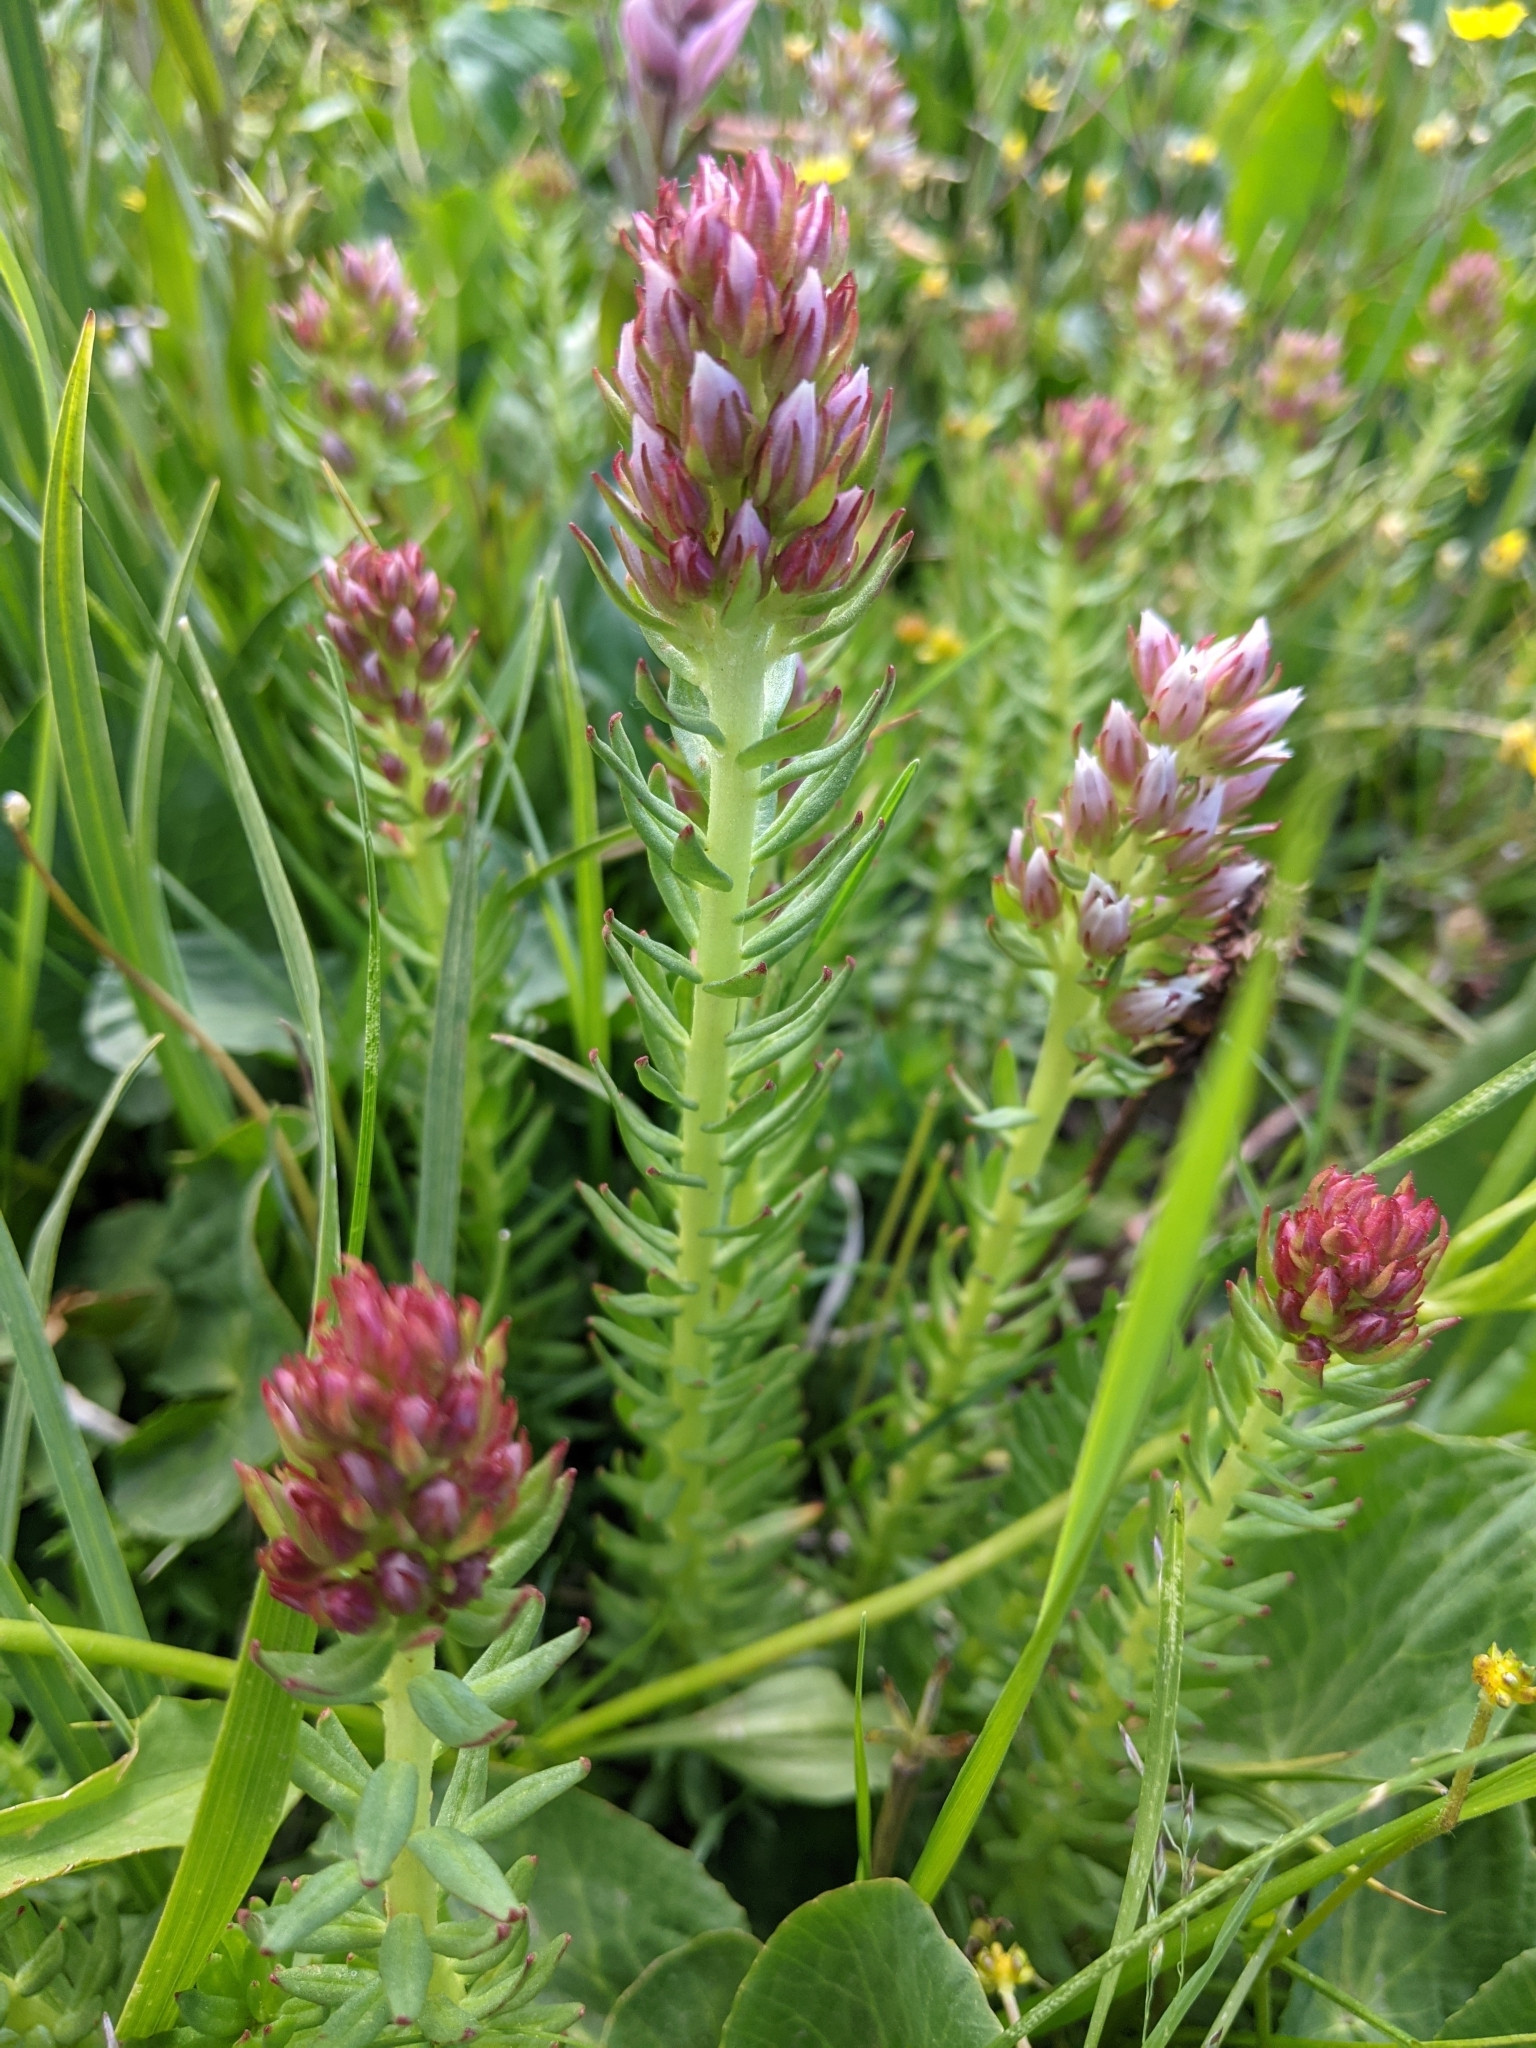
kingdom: Plantae
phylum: Tracheophyta
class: Magnoliopsida
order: Saxifragales
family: Crassulaceae
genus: Rhodiola
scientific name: Rhodiola rhodantha
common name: Red orpine
